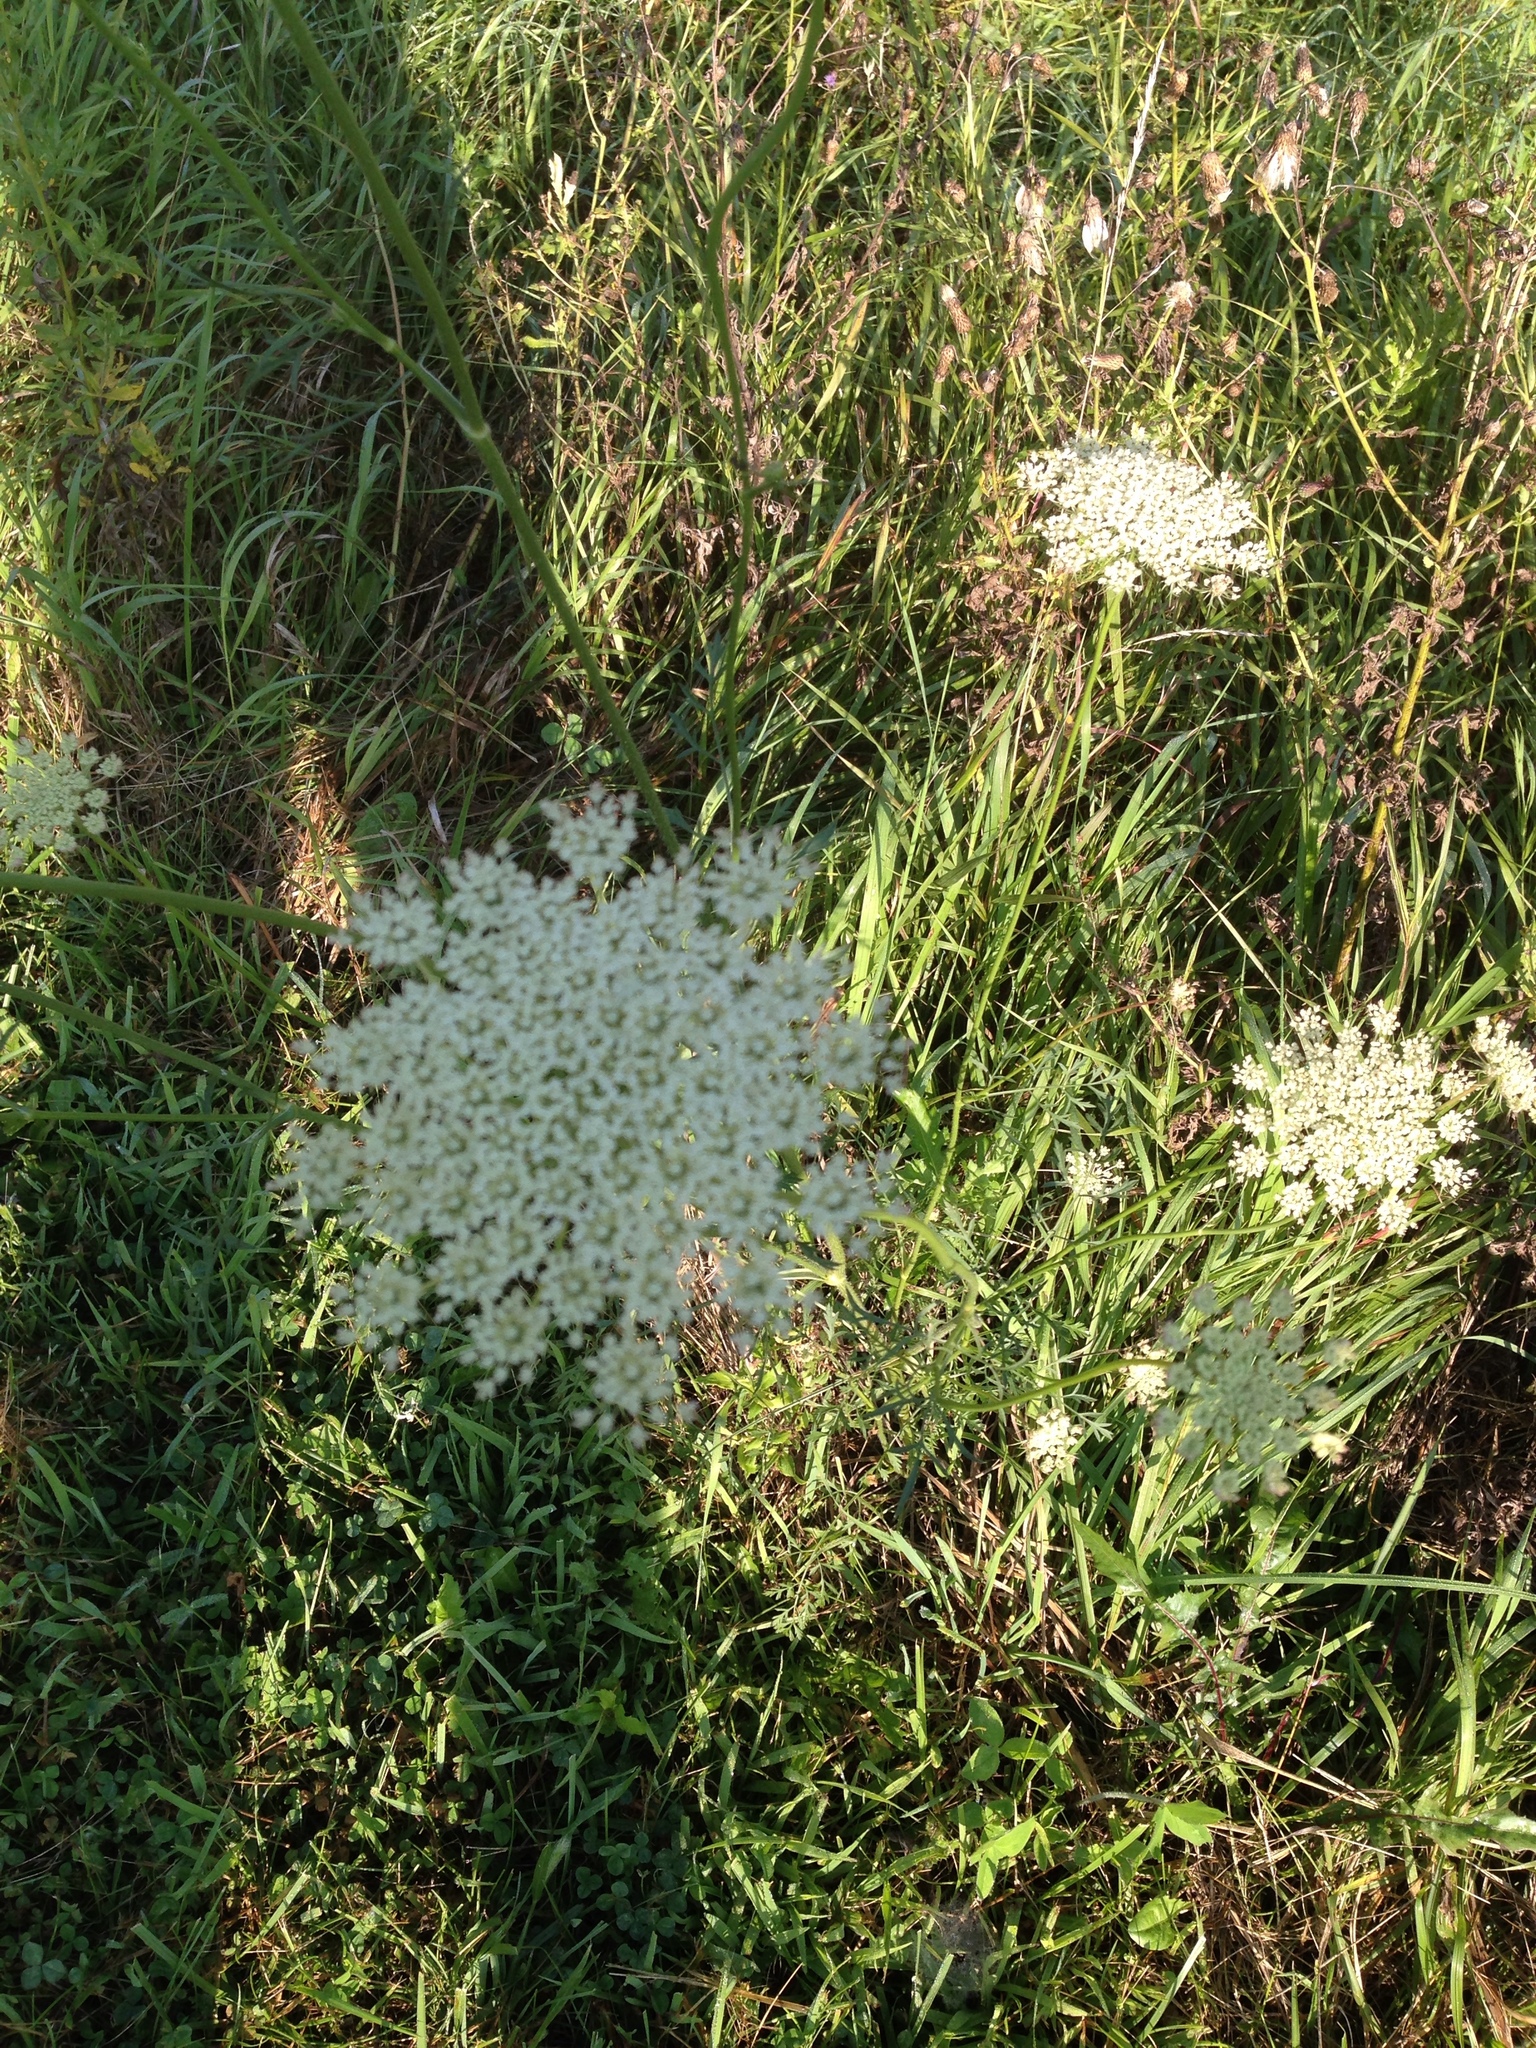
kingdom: Plantae
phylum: Tracheophyta
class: Magnoliopsida
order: Apiales
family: Apiaceae
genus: Daucus
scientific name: Daucus carota
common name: Wild carrot
